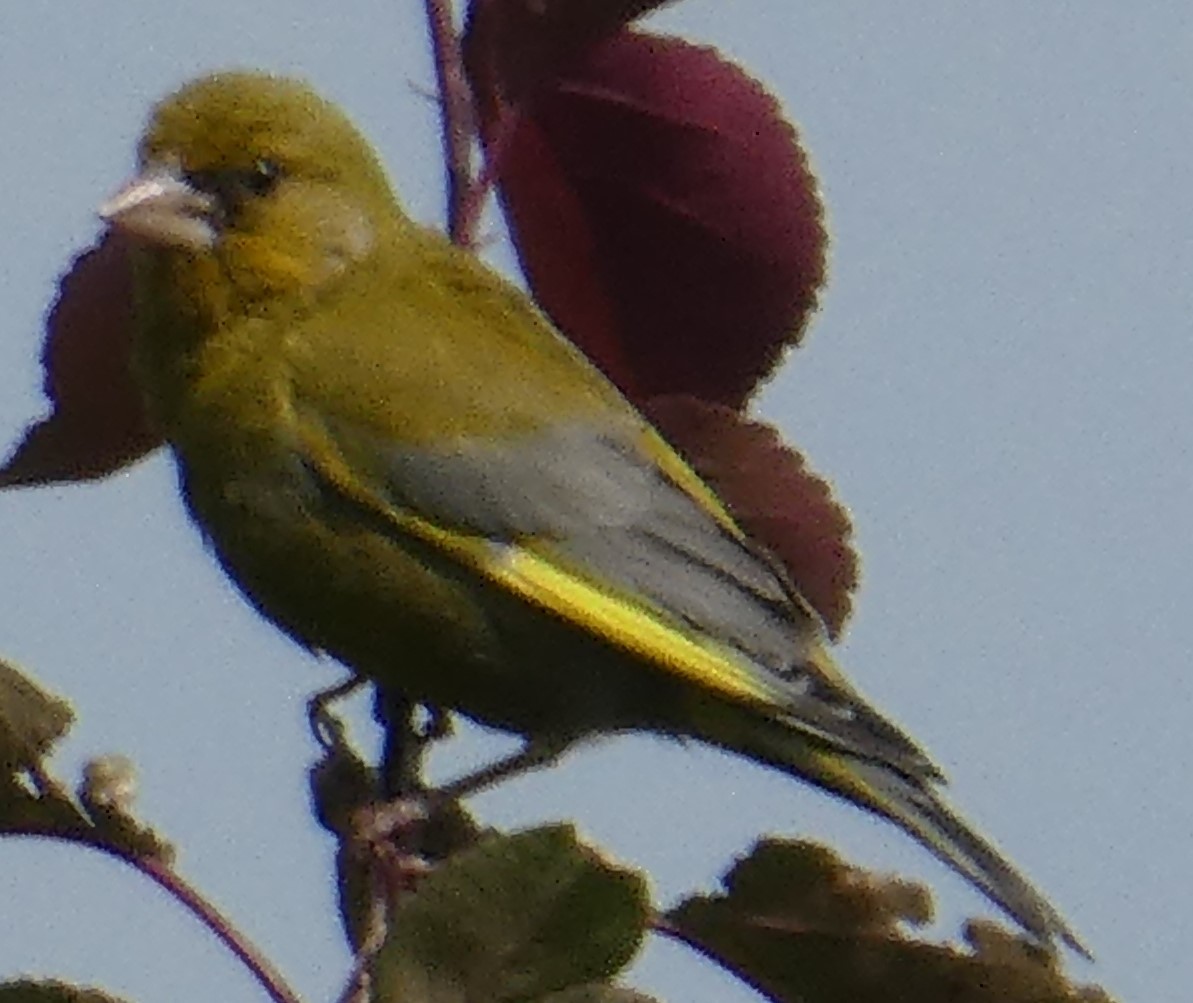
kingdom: Plantae
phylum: Tracheophyta
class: Liliopsida
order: Poales
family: Poaceae
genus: Chloris
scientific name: Chloris chloris
